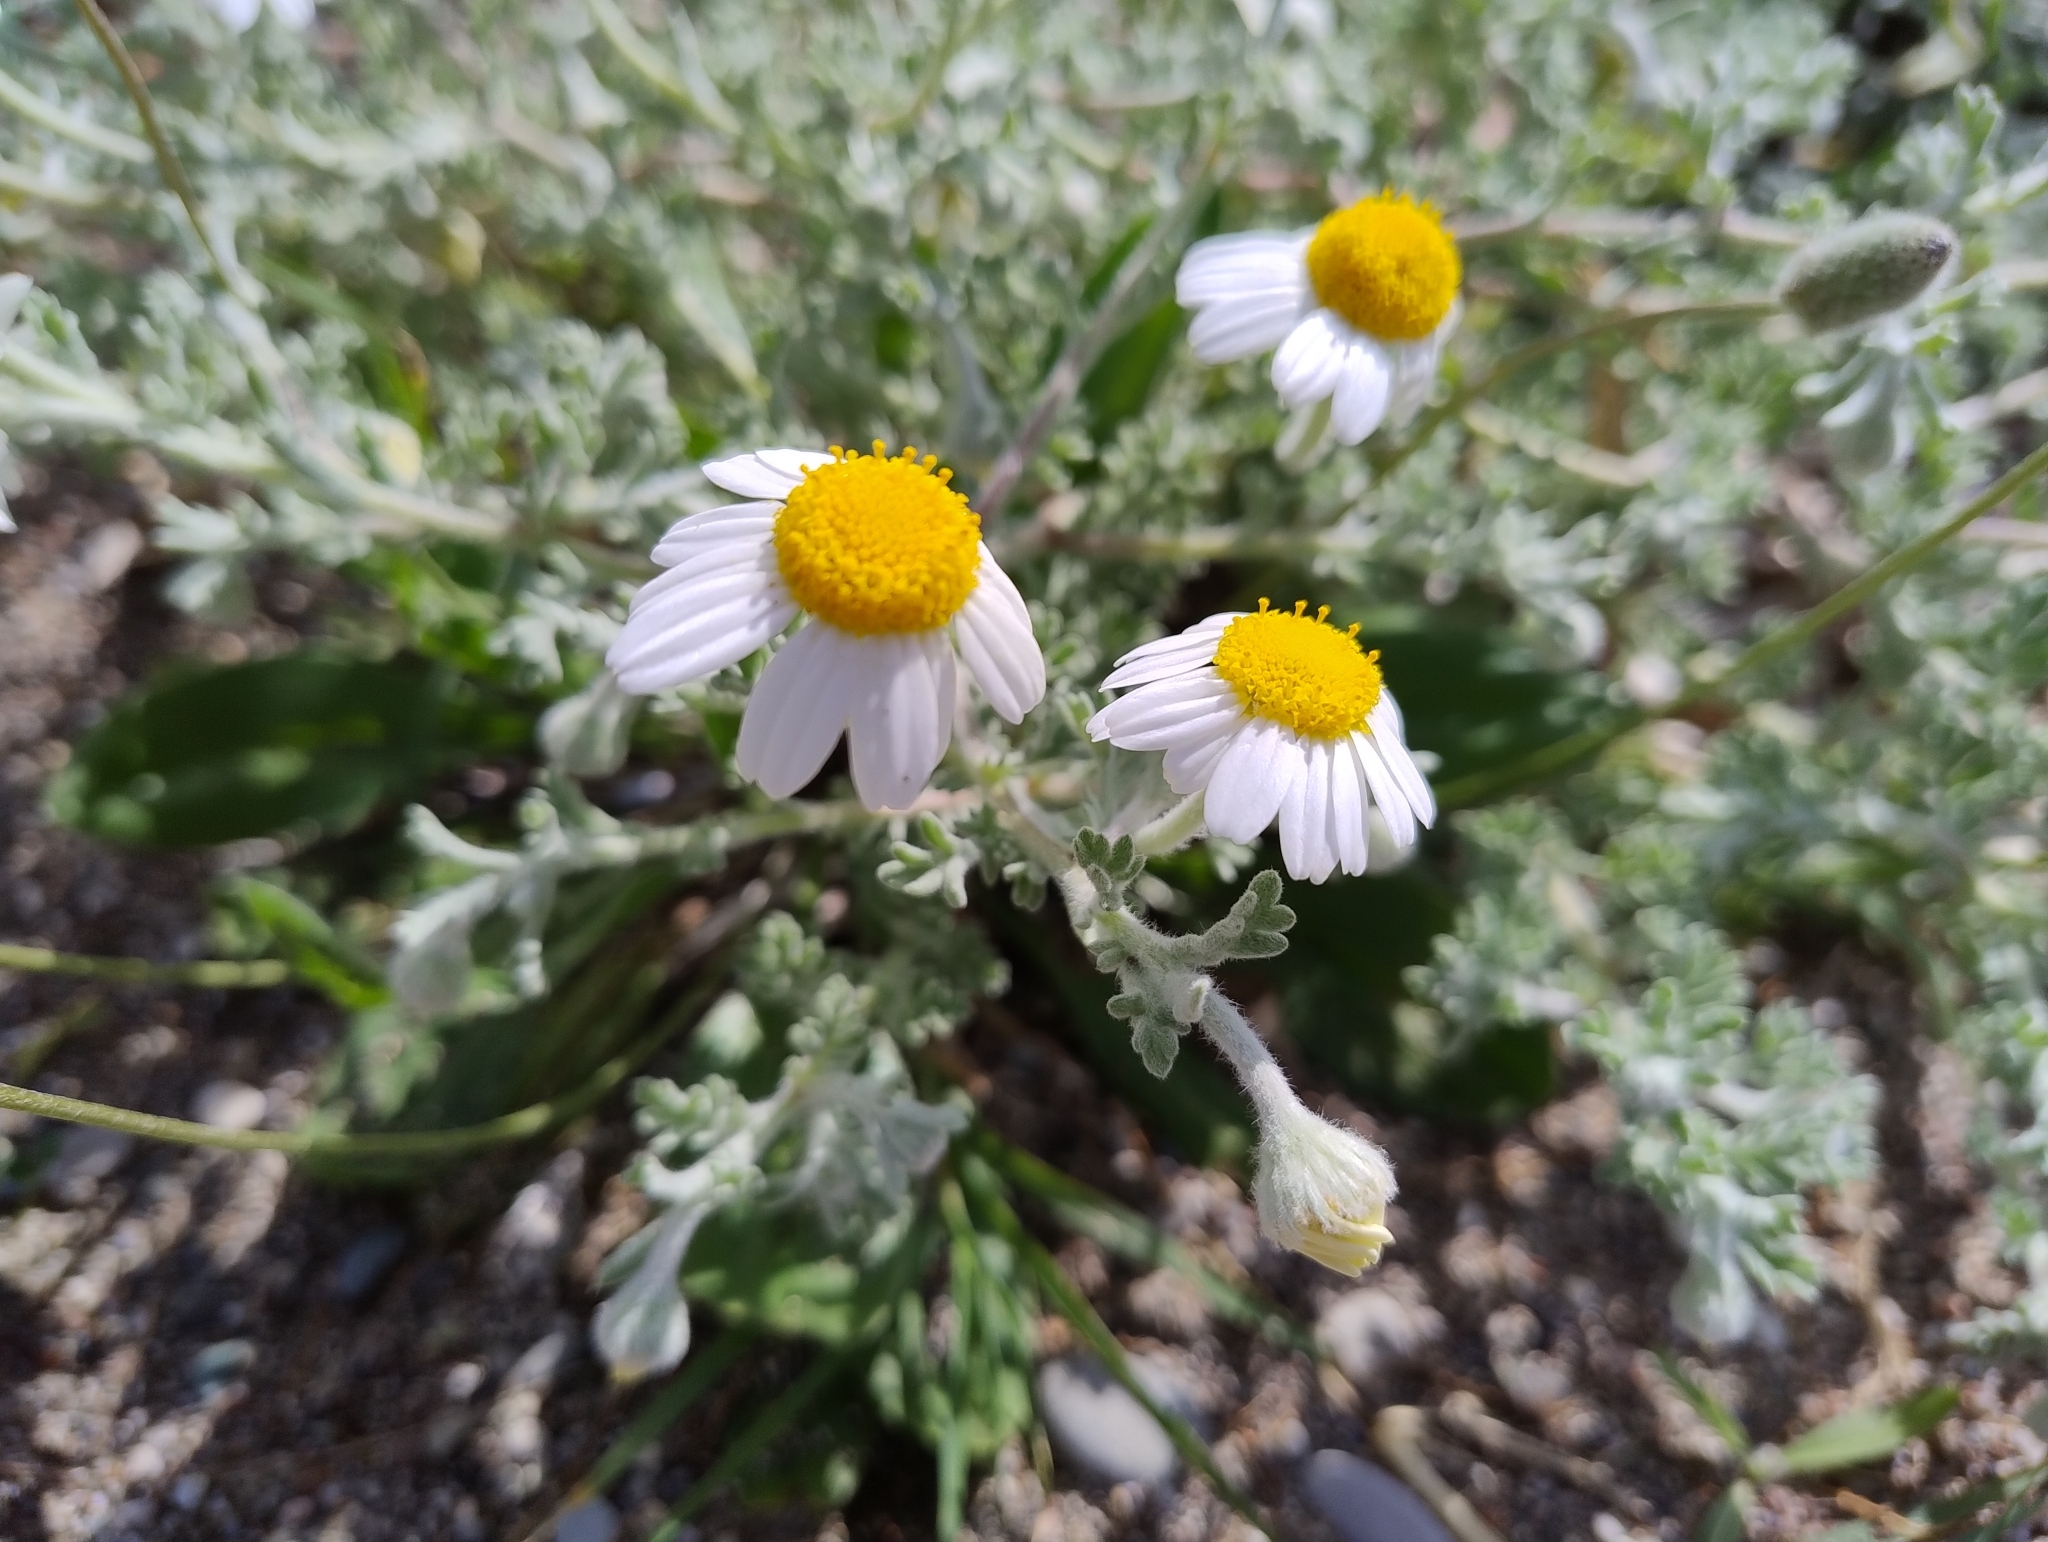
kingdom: Plantae
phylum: Tracheophyta
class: Magnoliopsida
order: Asterales
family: Asteraceae
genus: Anthemis
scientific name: Anthemis tomentosa
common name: Woolly chamomile
